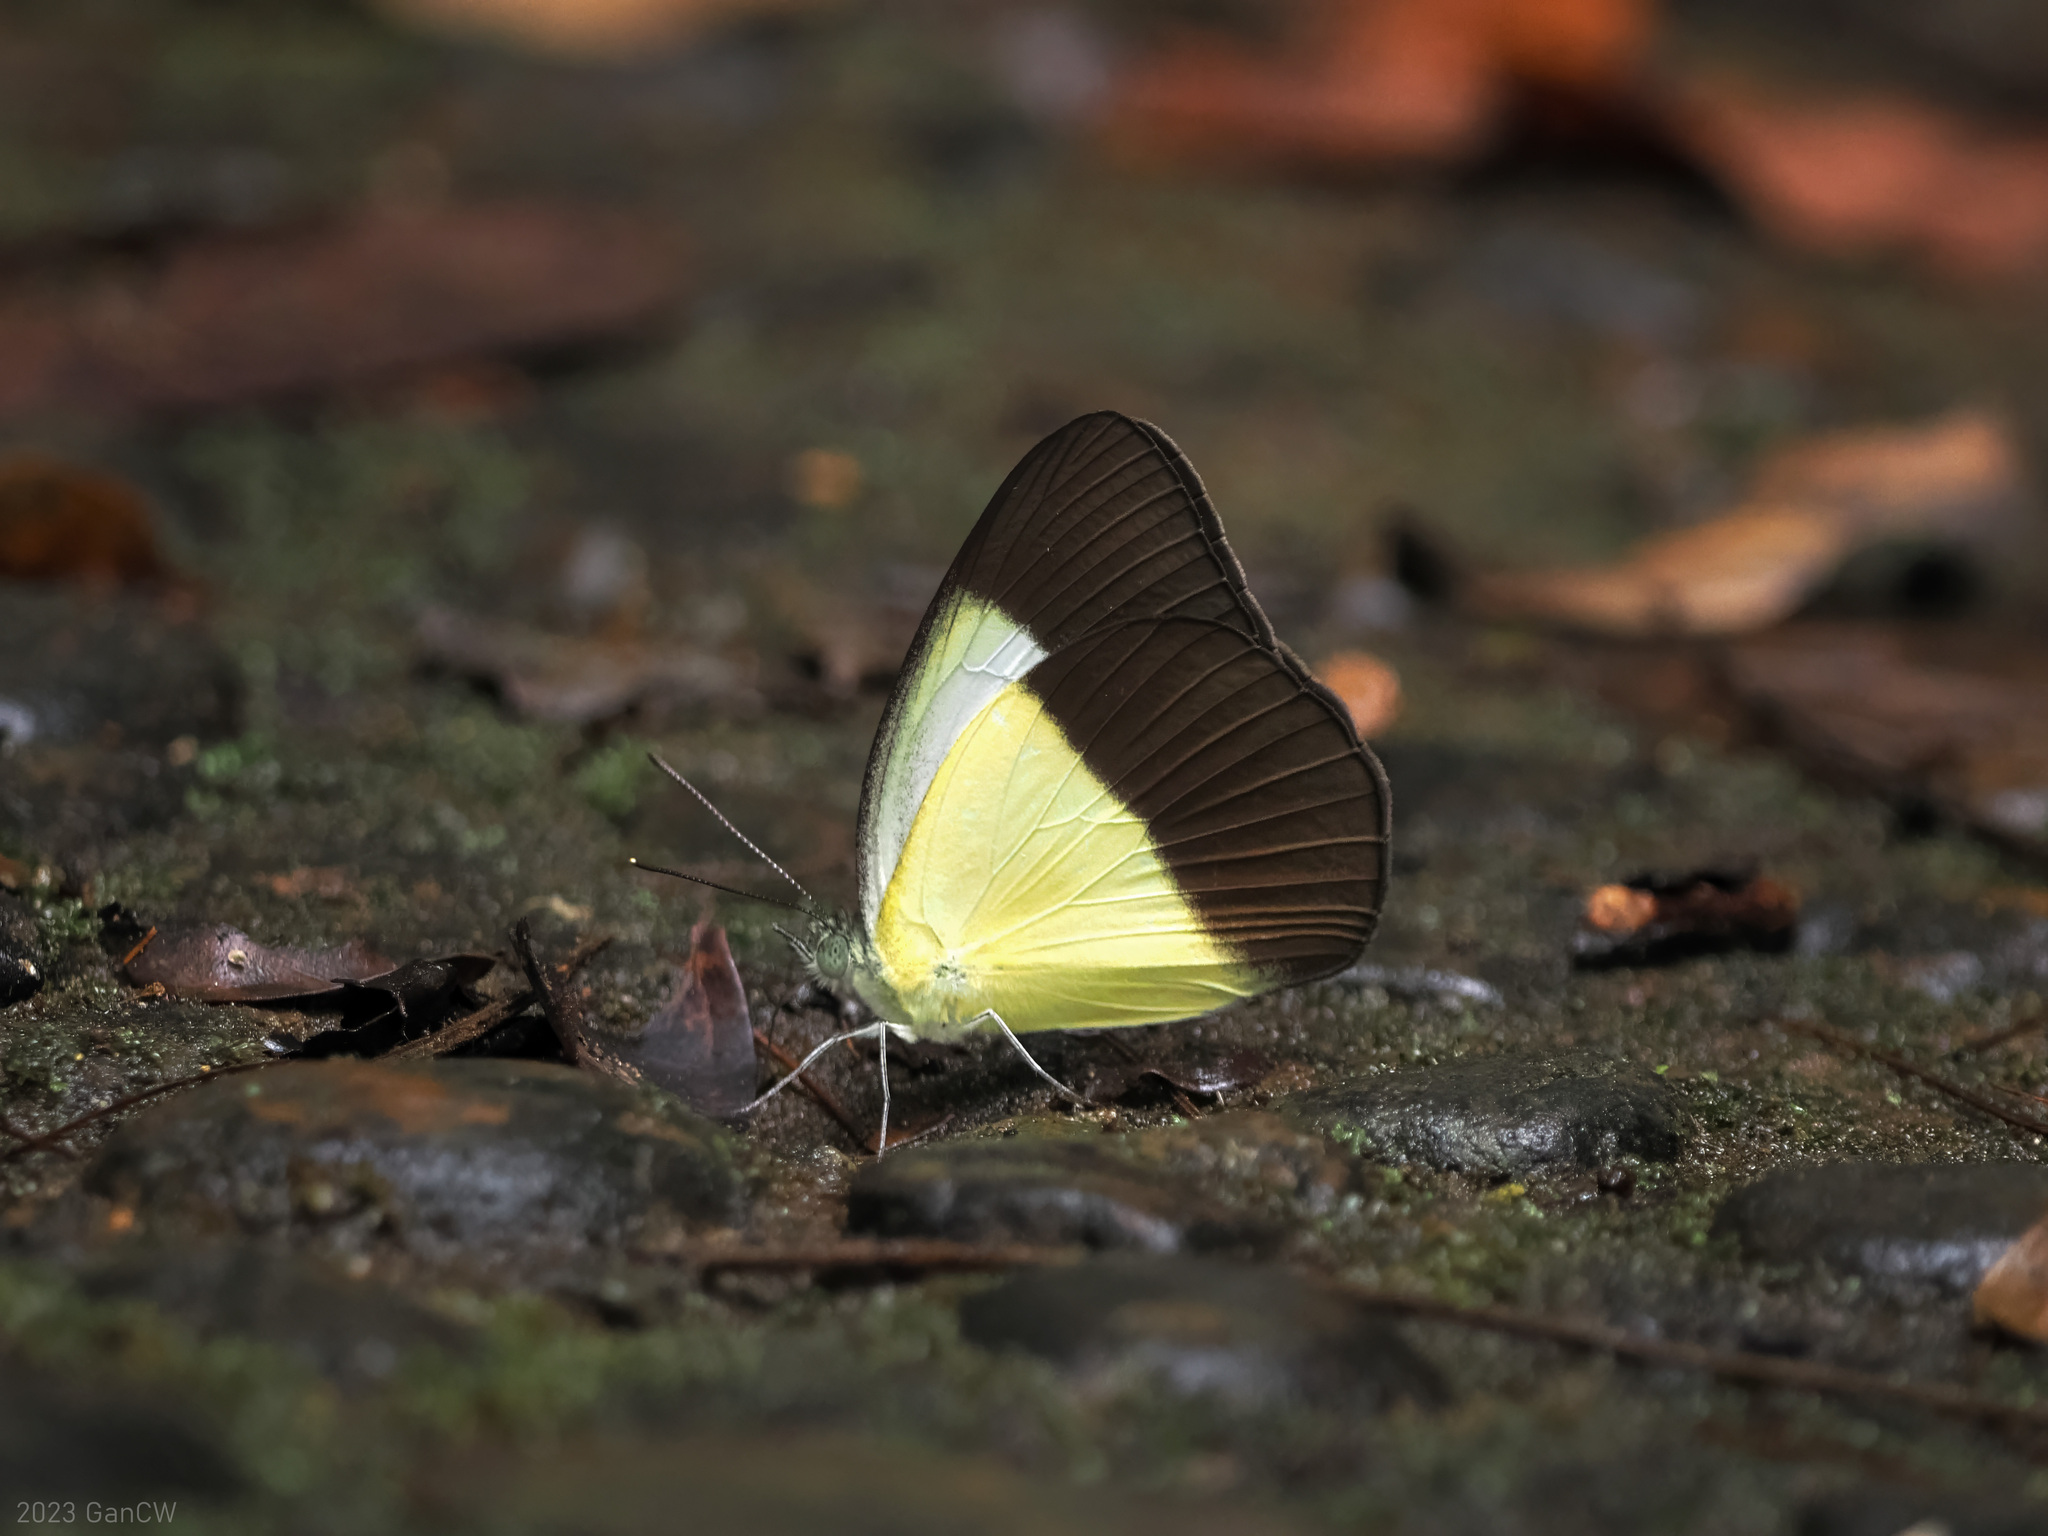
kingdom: Animalia
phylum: Arthropoda
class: Insecta
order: Lepidoptera
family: Pieridae
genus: Aoa
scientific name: Aoa affinis
